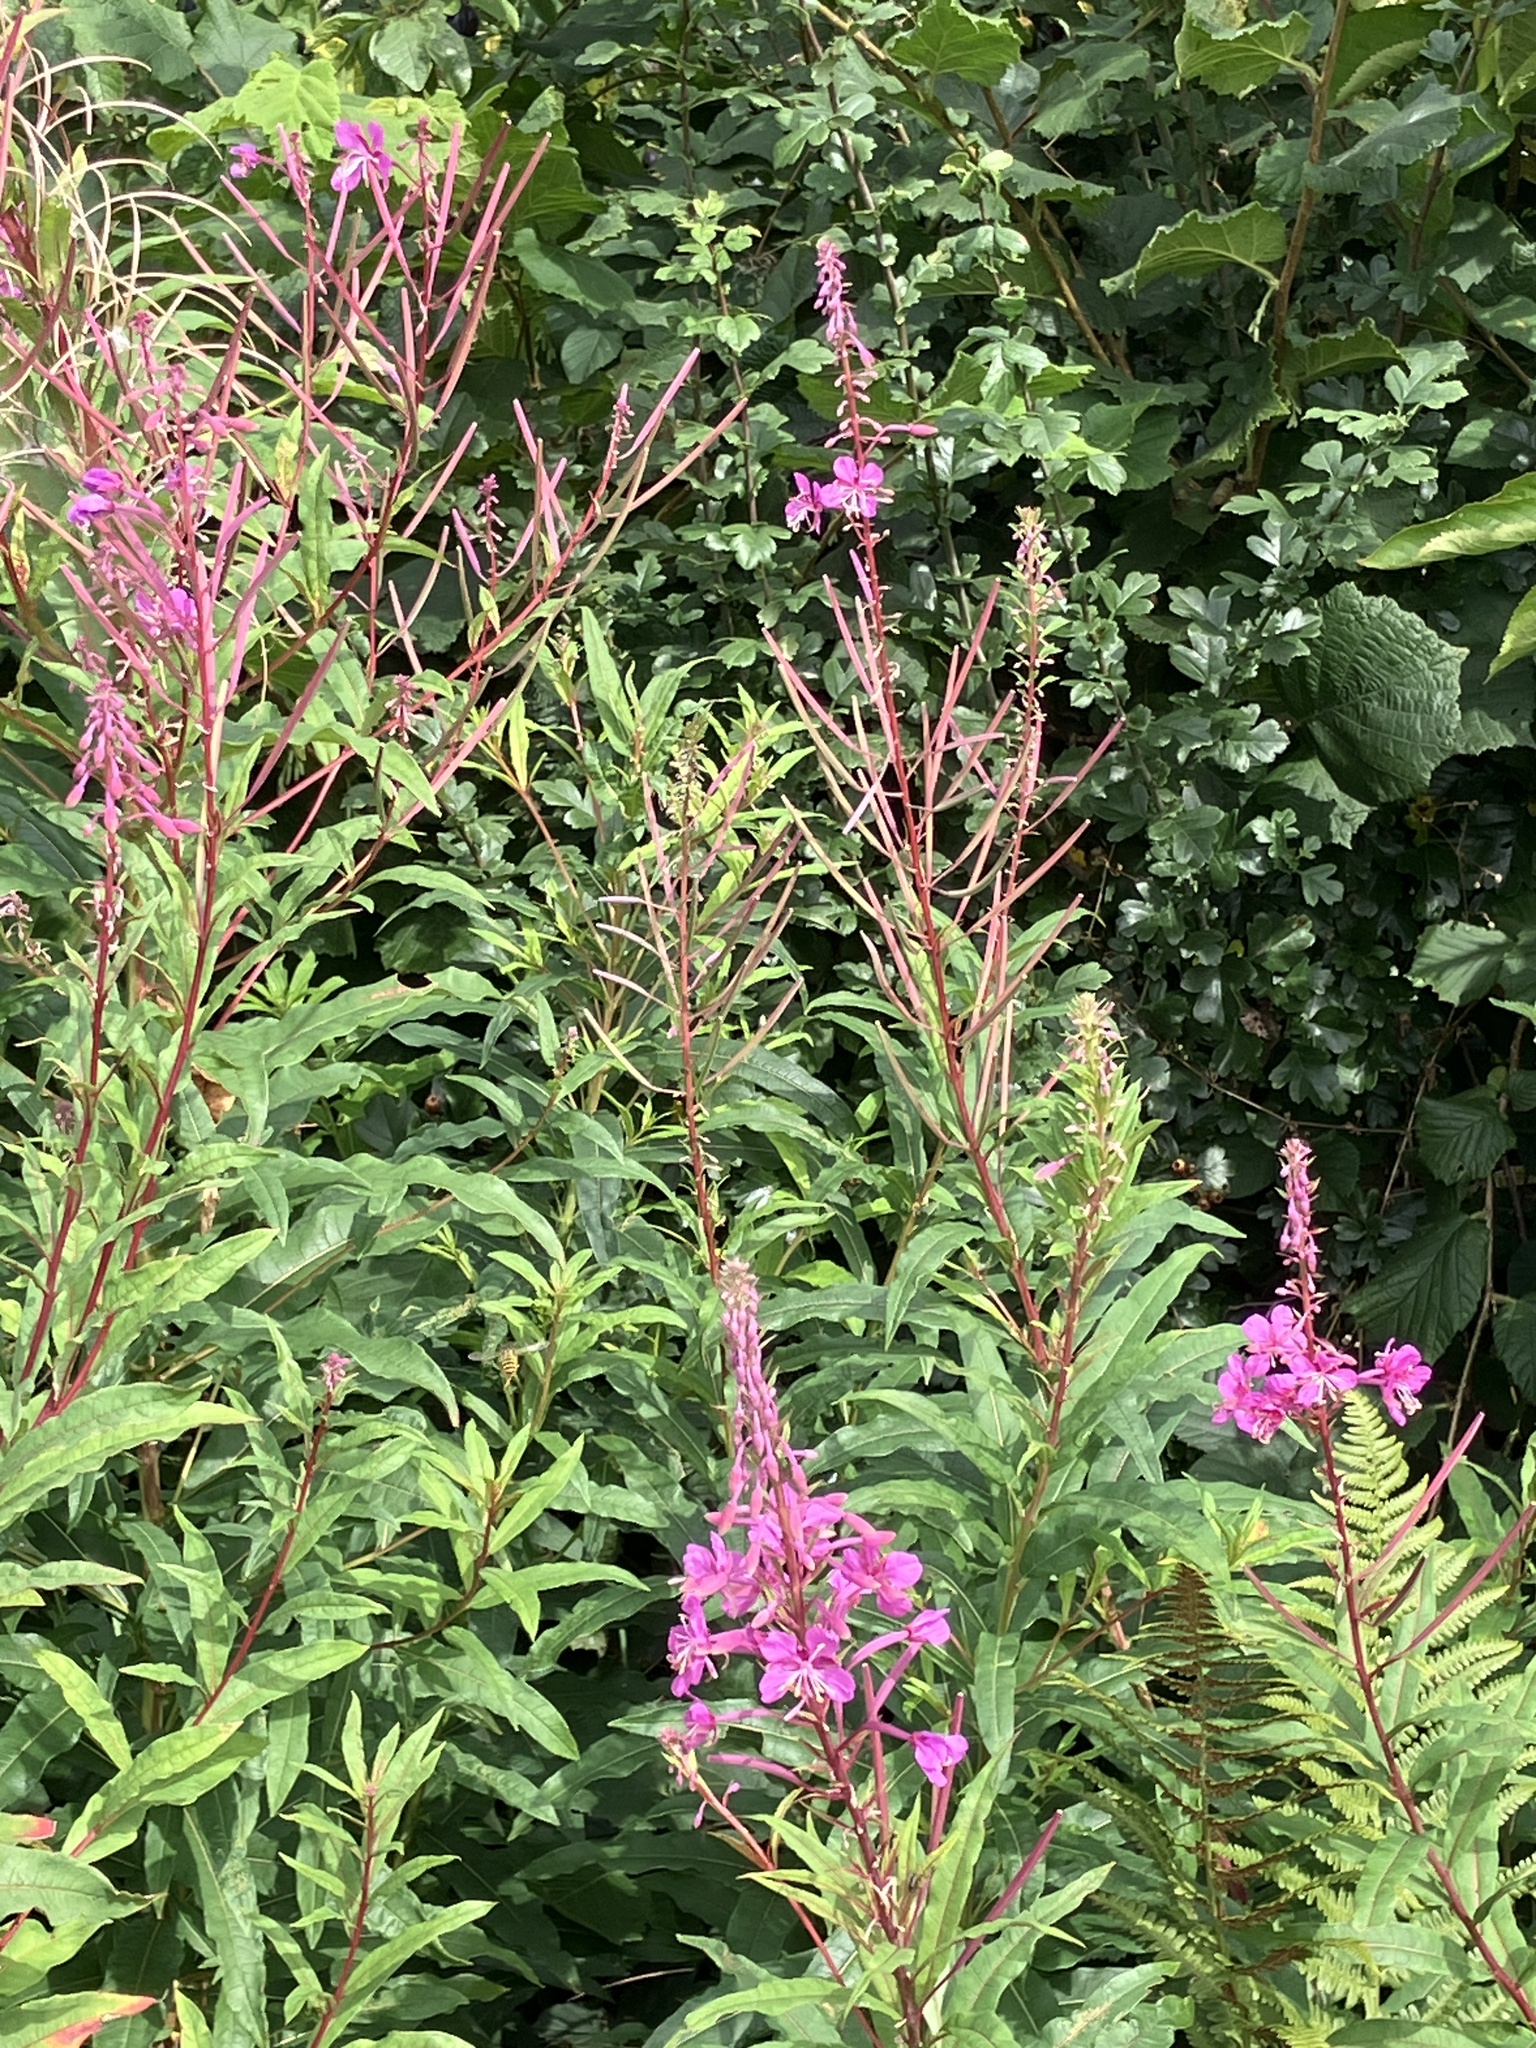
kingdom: Plantae
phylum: Tracheophyta
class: Magnoliopsida
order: Myrtales
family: Onagraceae
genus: Chamaenerion
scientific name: Chamaenerion angustifolium
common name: Fireweed
